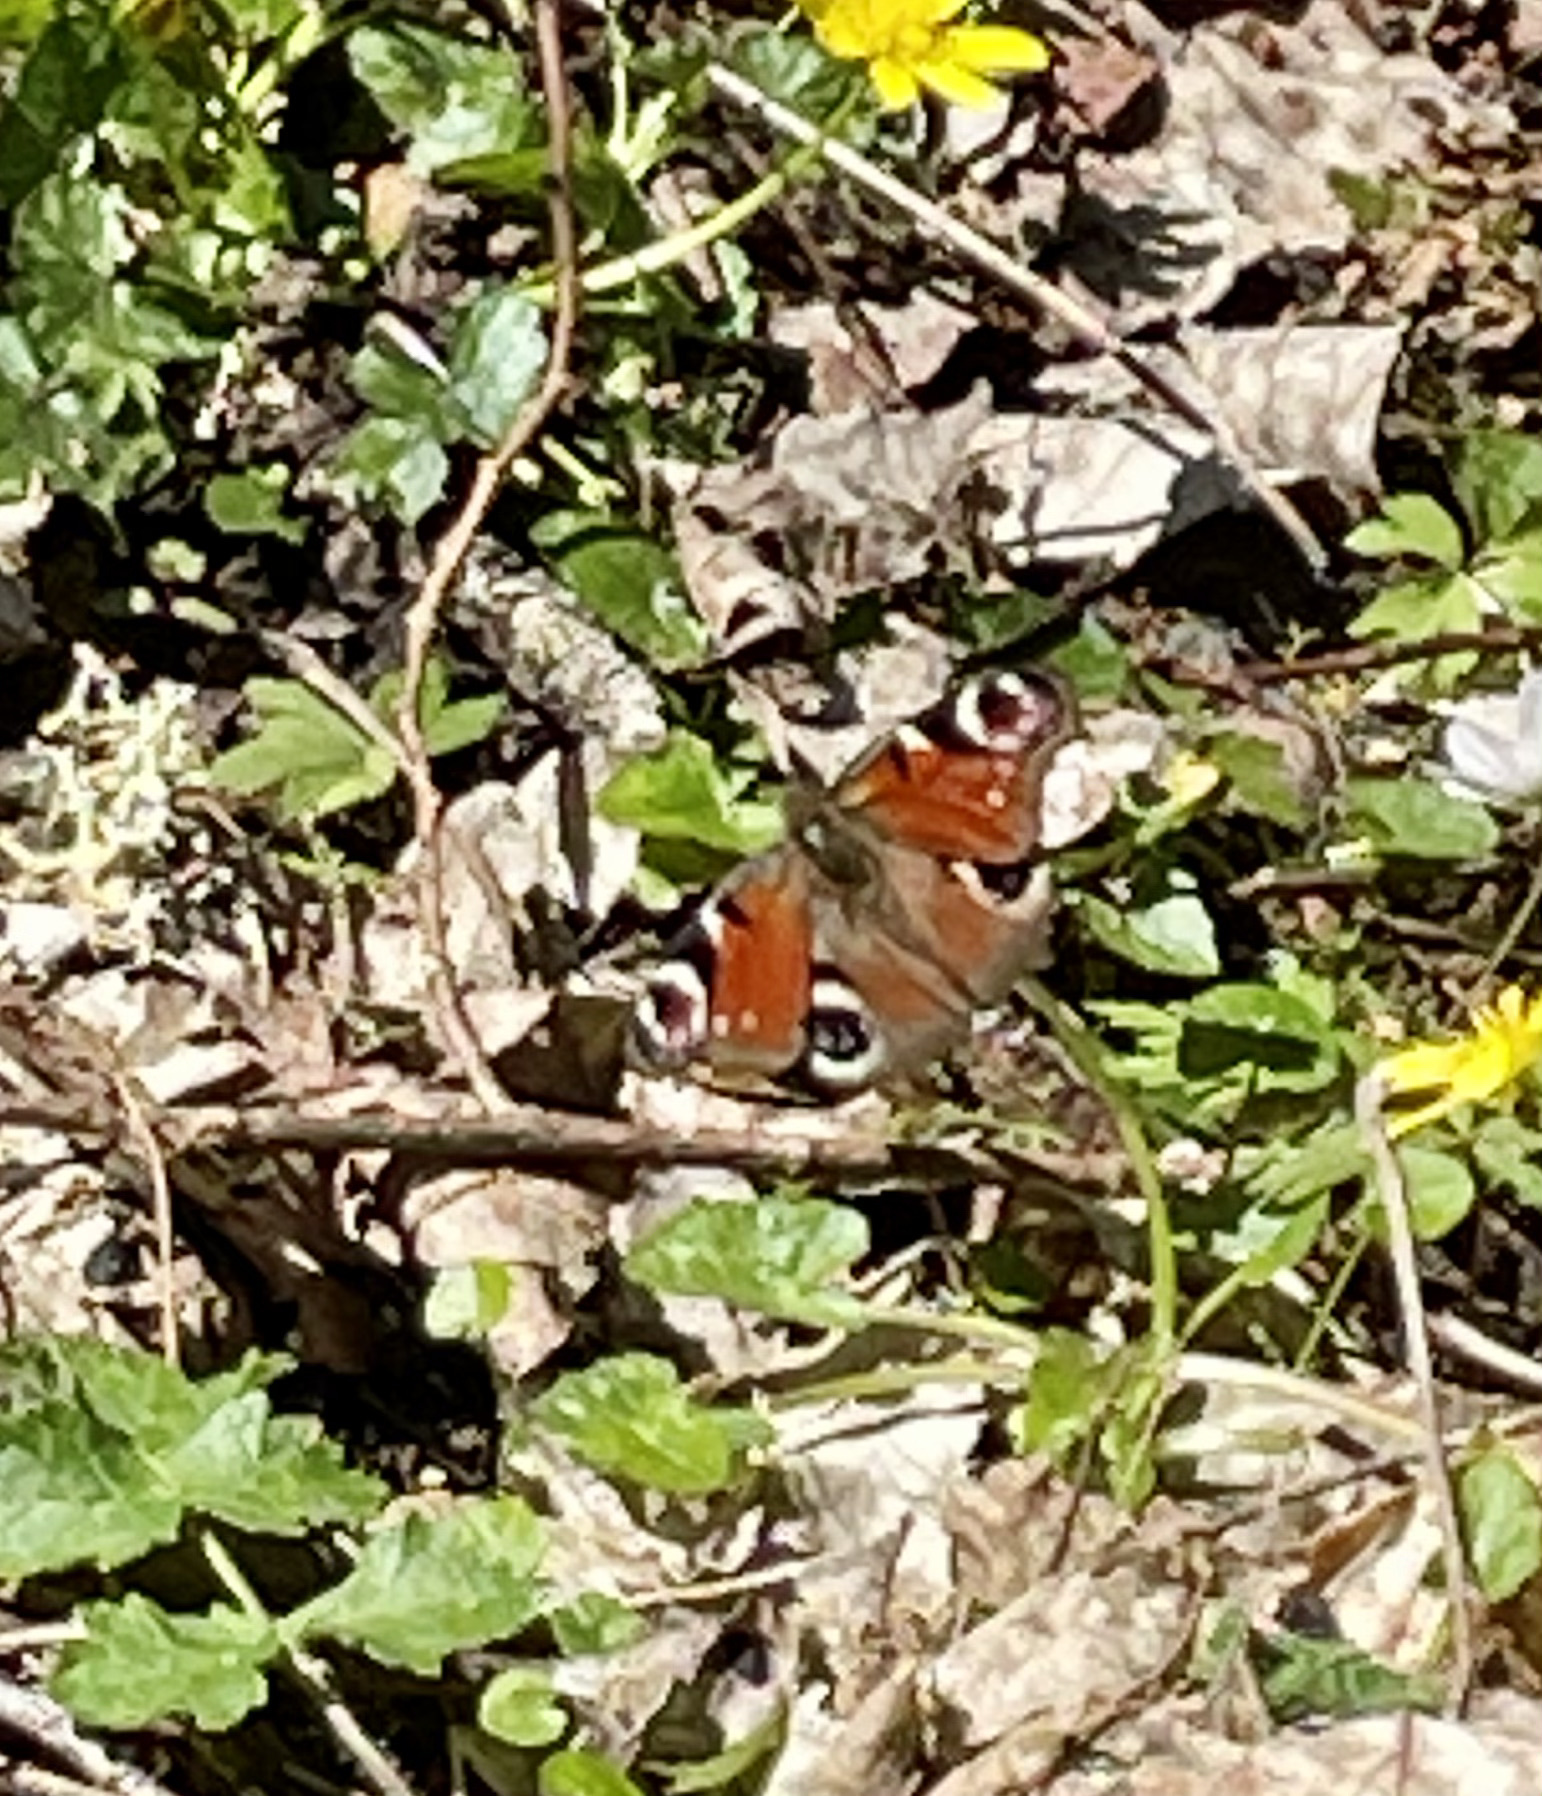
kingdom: Animalia
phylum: Arthropoda
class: Insecta
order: Lepidoptera
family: Nymphalidae
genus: Aglais
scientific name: Aglais io
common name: Peacock
